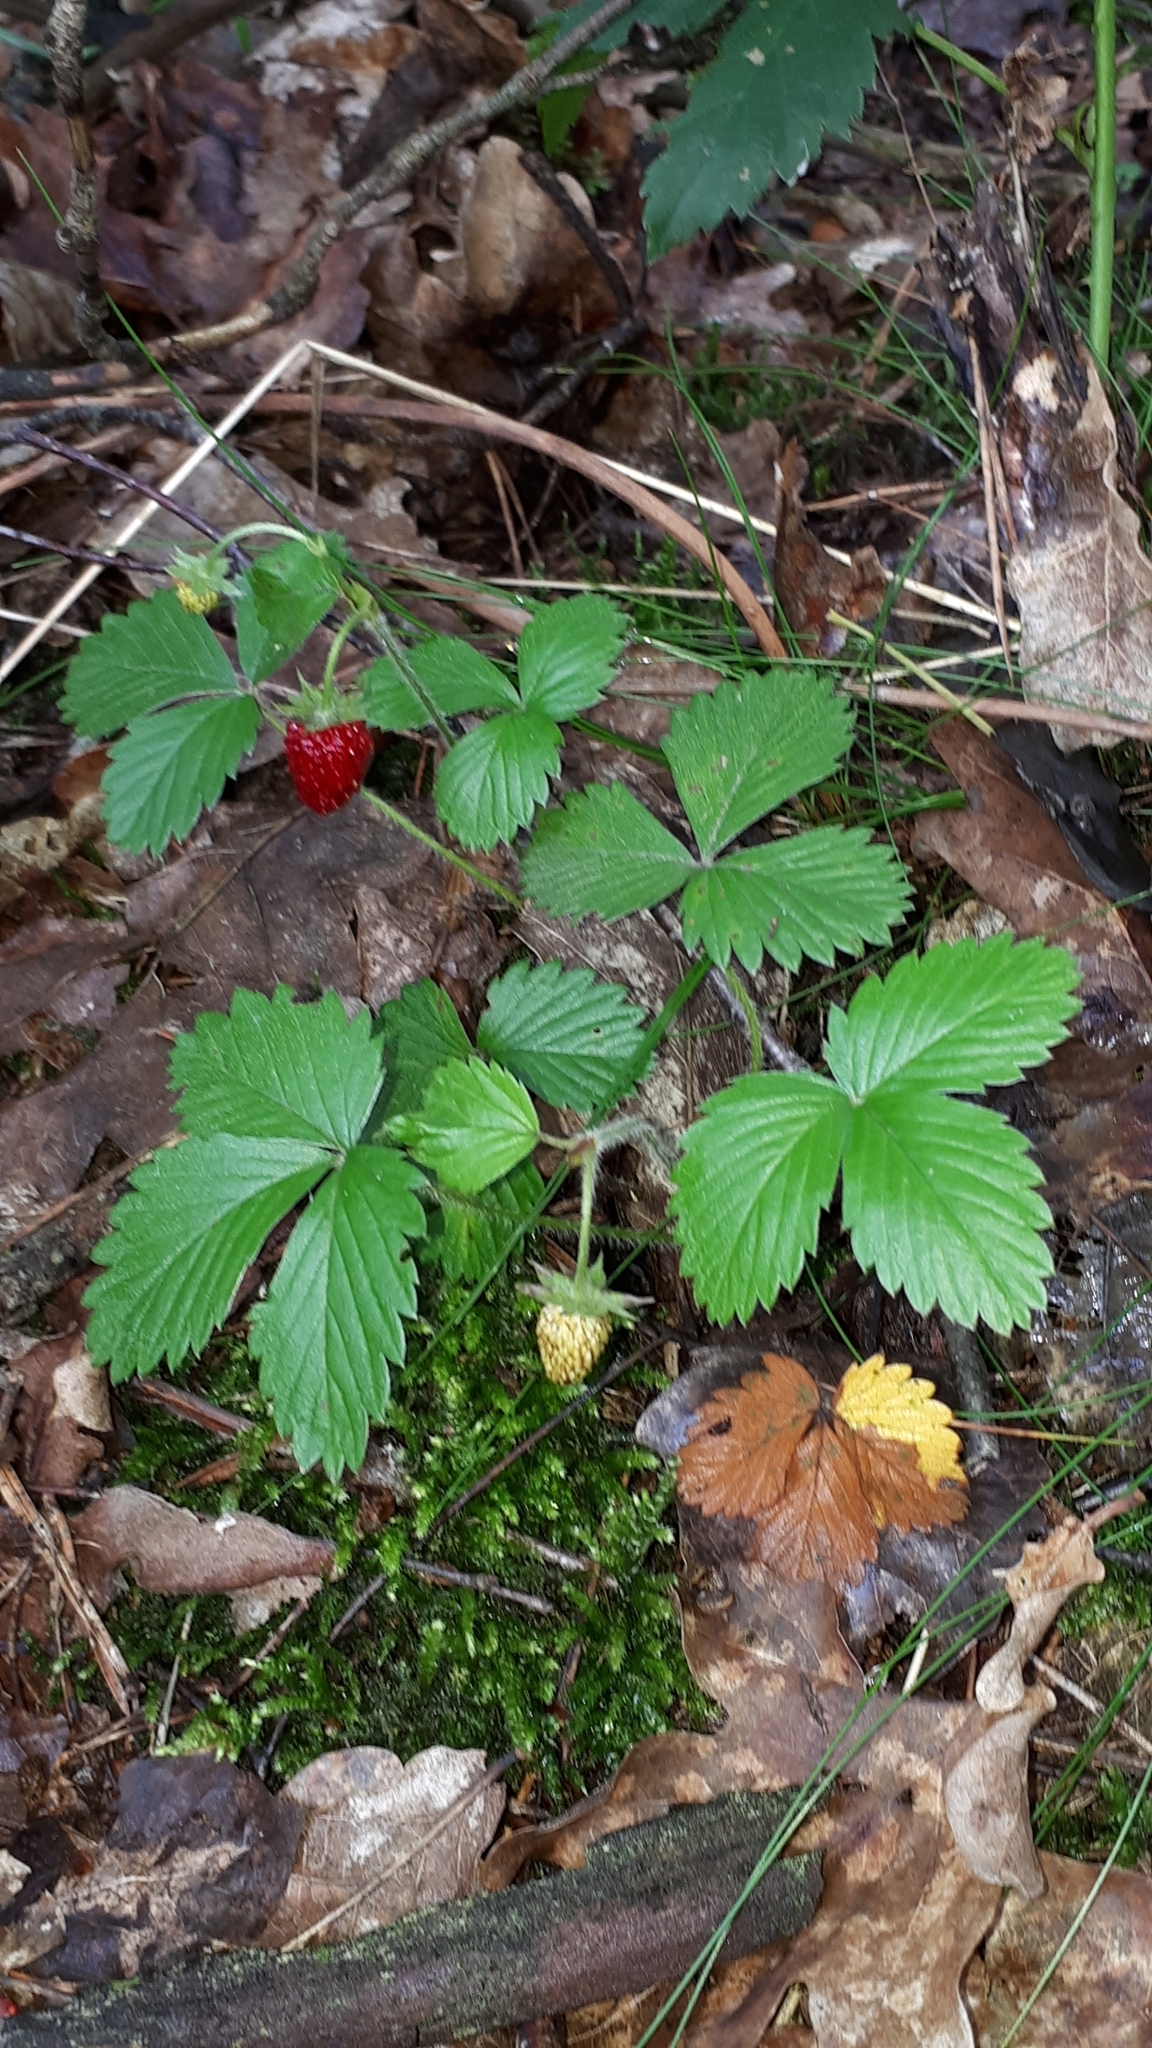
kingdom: Plantae
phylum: Tracheophyta
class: Magnoliopsida
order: Rosales
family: Rosaceae
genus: Fragaria
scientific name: Fragaria vesca
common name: Wild strawberry
